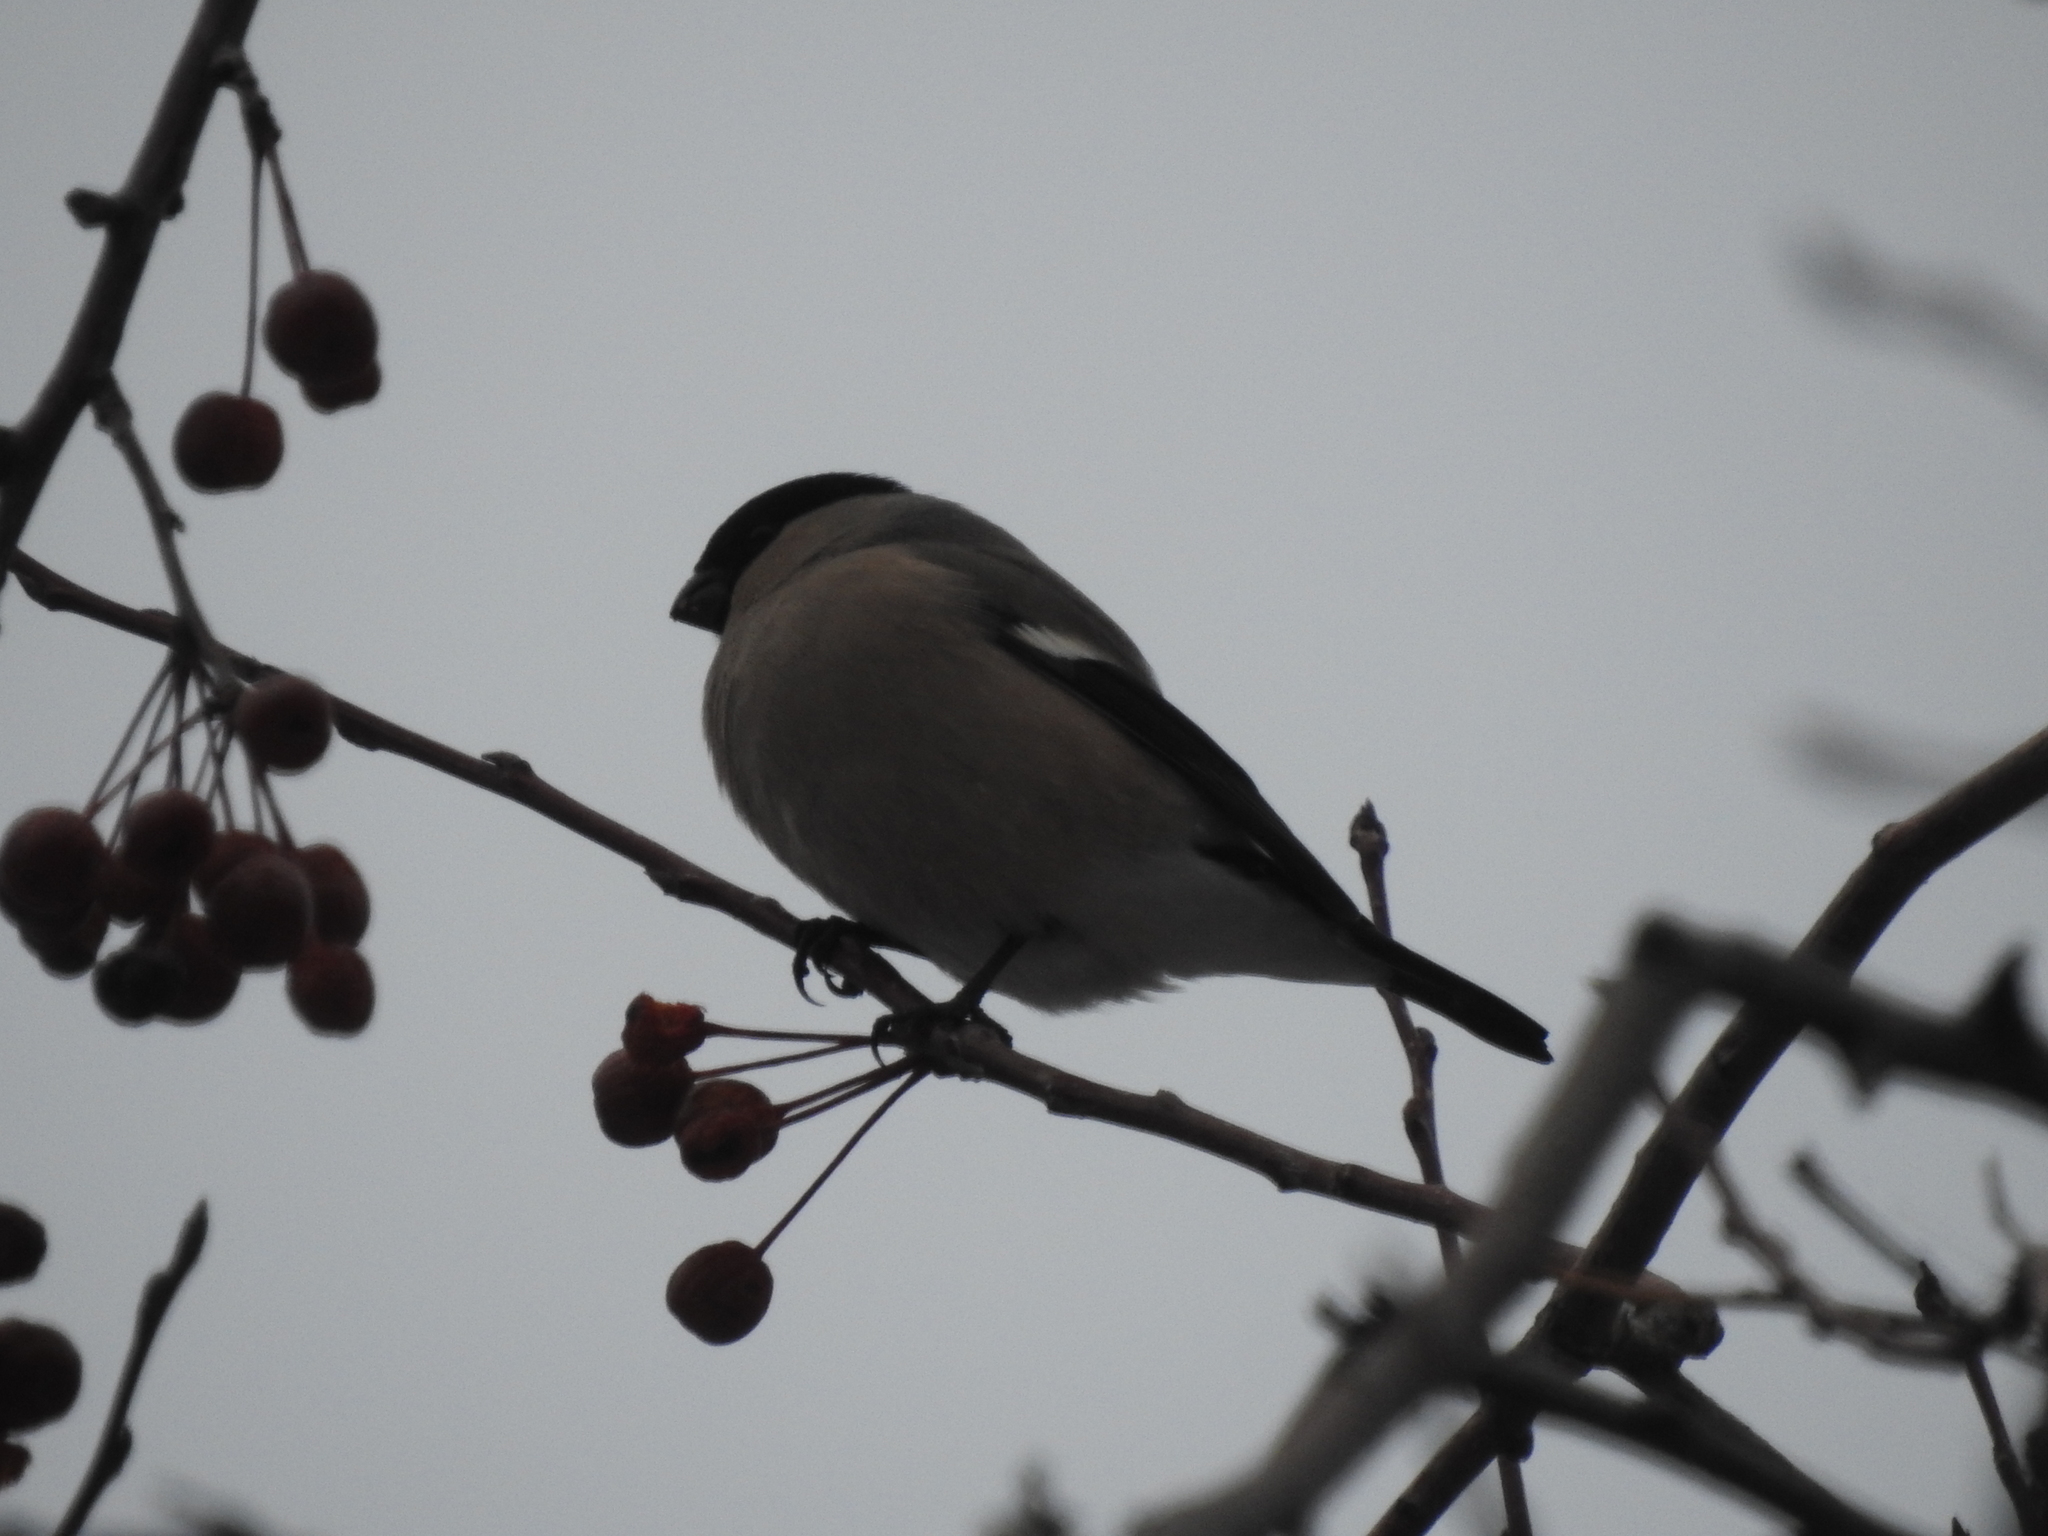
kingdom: Animalia
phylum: Chordata
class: Aves
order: Passeriformes
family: Fringillidae
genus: Pyrrhula
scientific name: Pyrrhula pyrrhula
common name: Eurasian bullfinch
